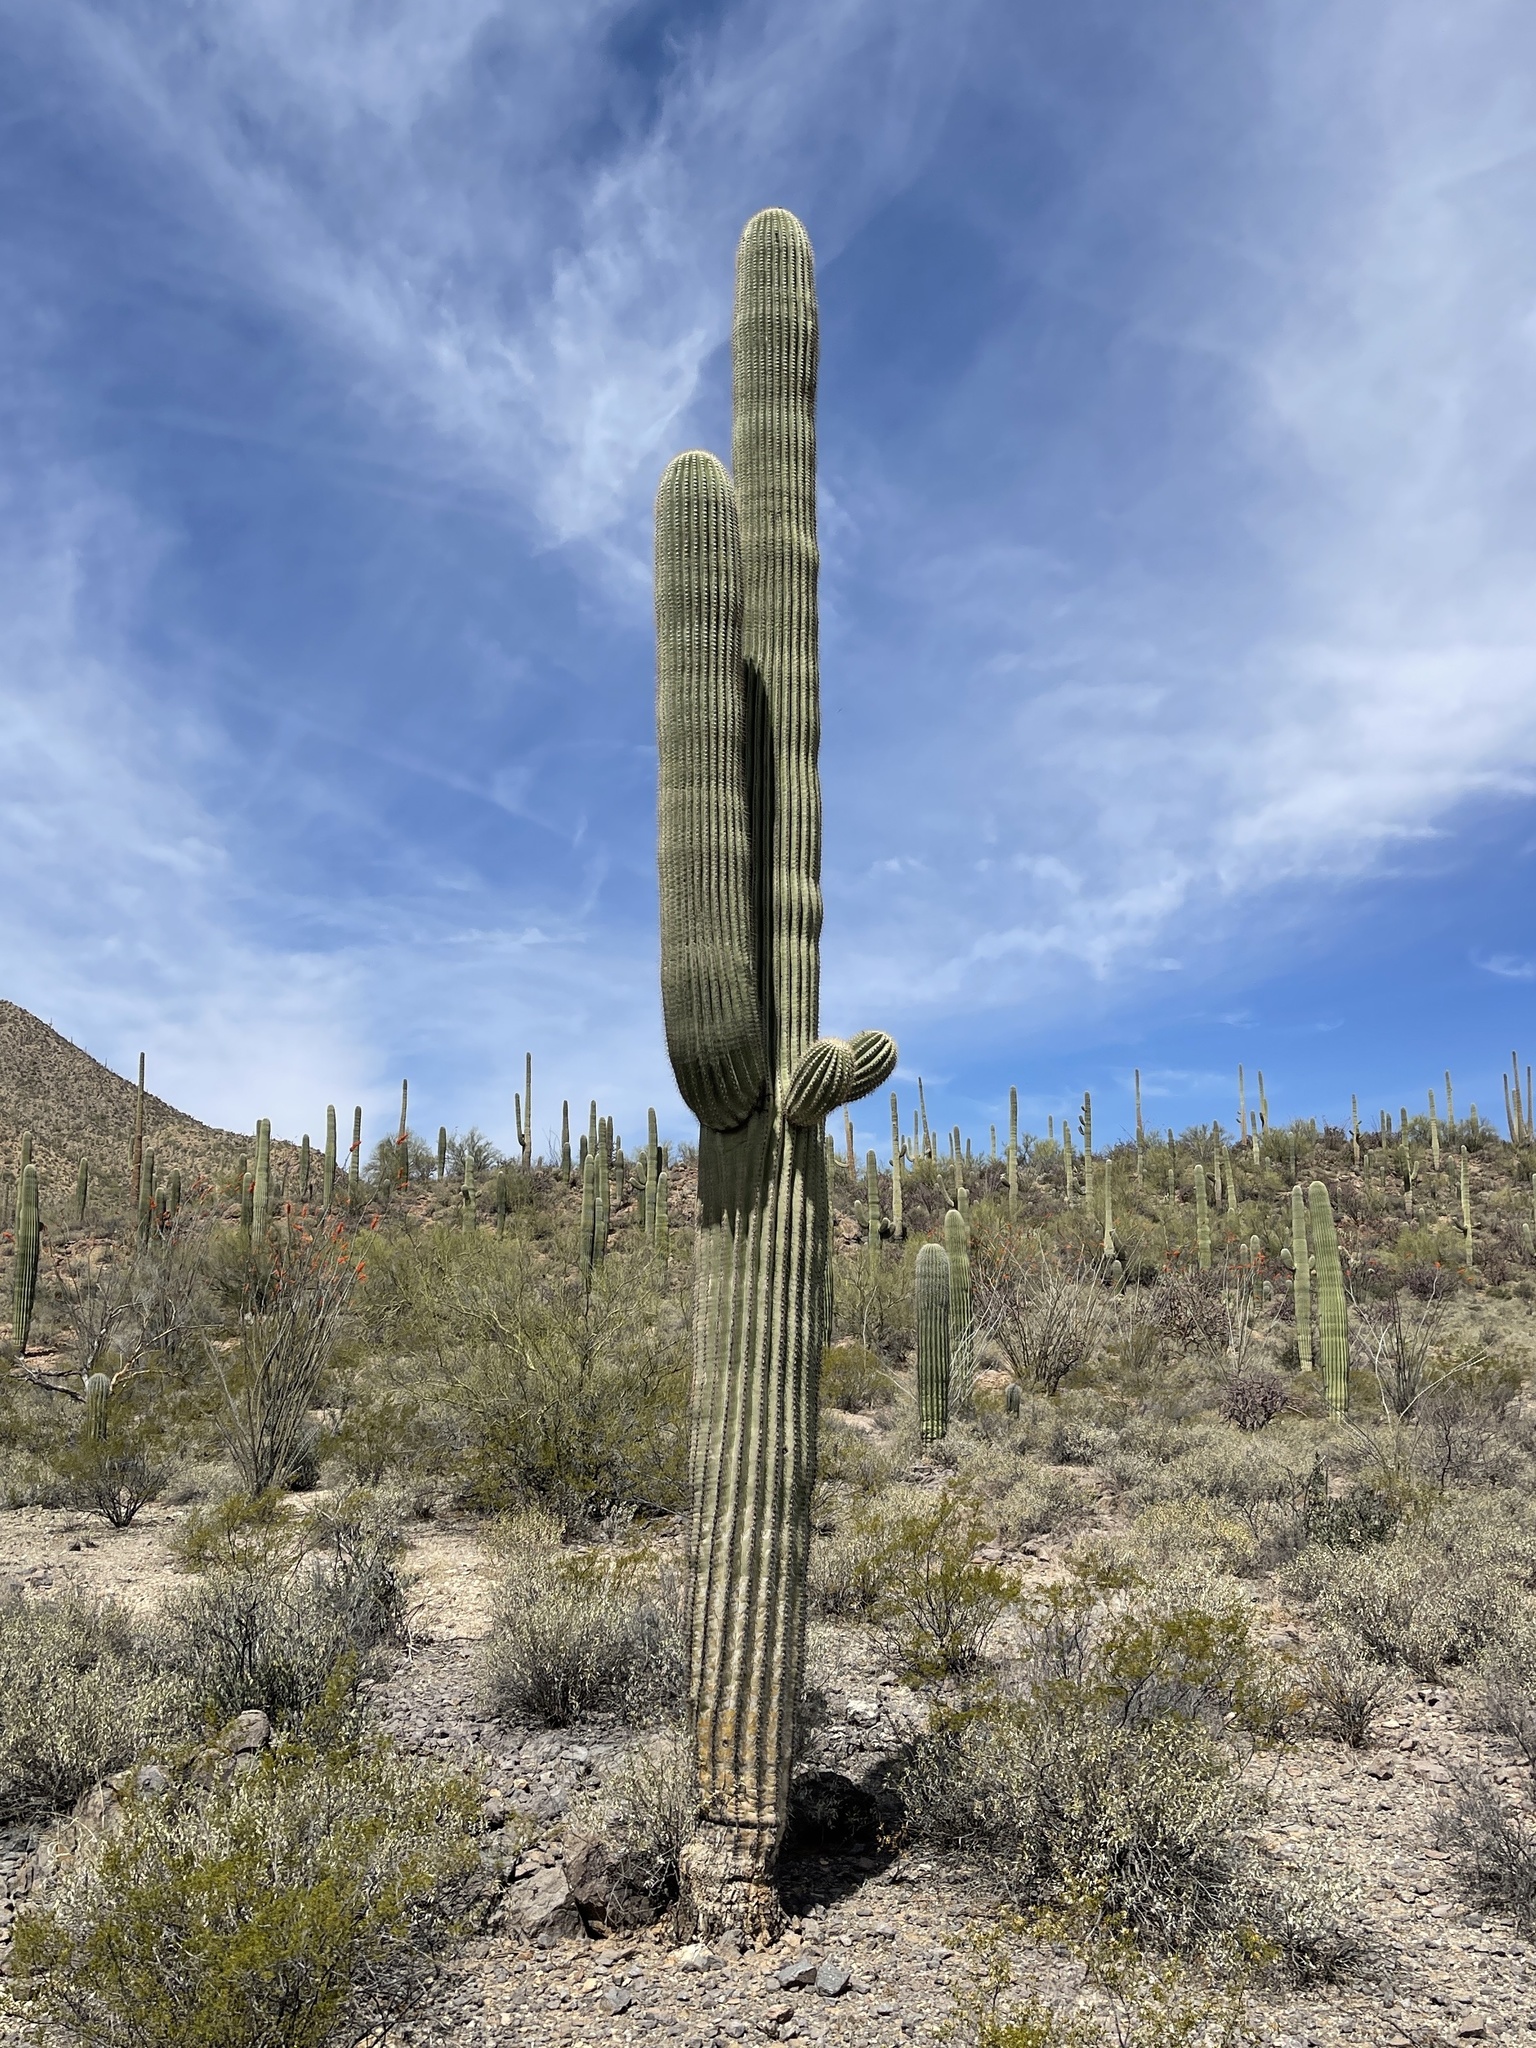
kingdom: Plantae
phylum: Tracheophyta
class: Magnoliopsida
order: Caryophyllales
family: Cactaceae
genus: Carnegiea
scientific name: Carnegiea gigantea
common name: Saguaro
